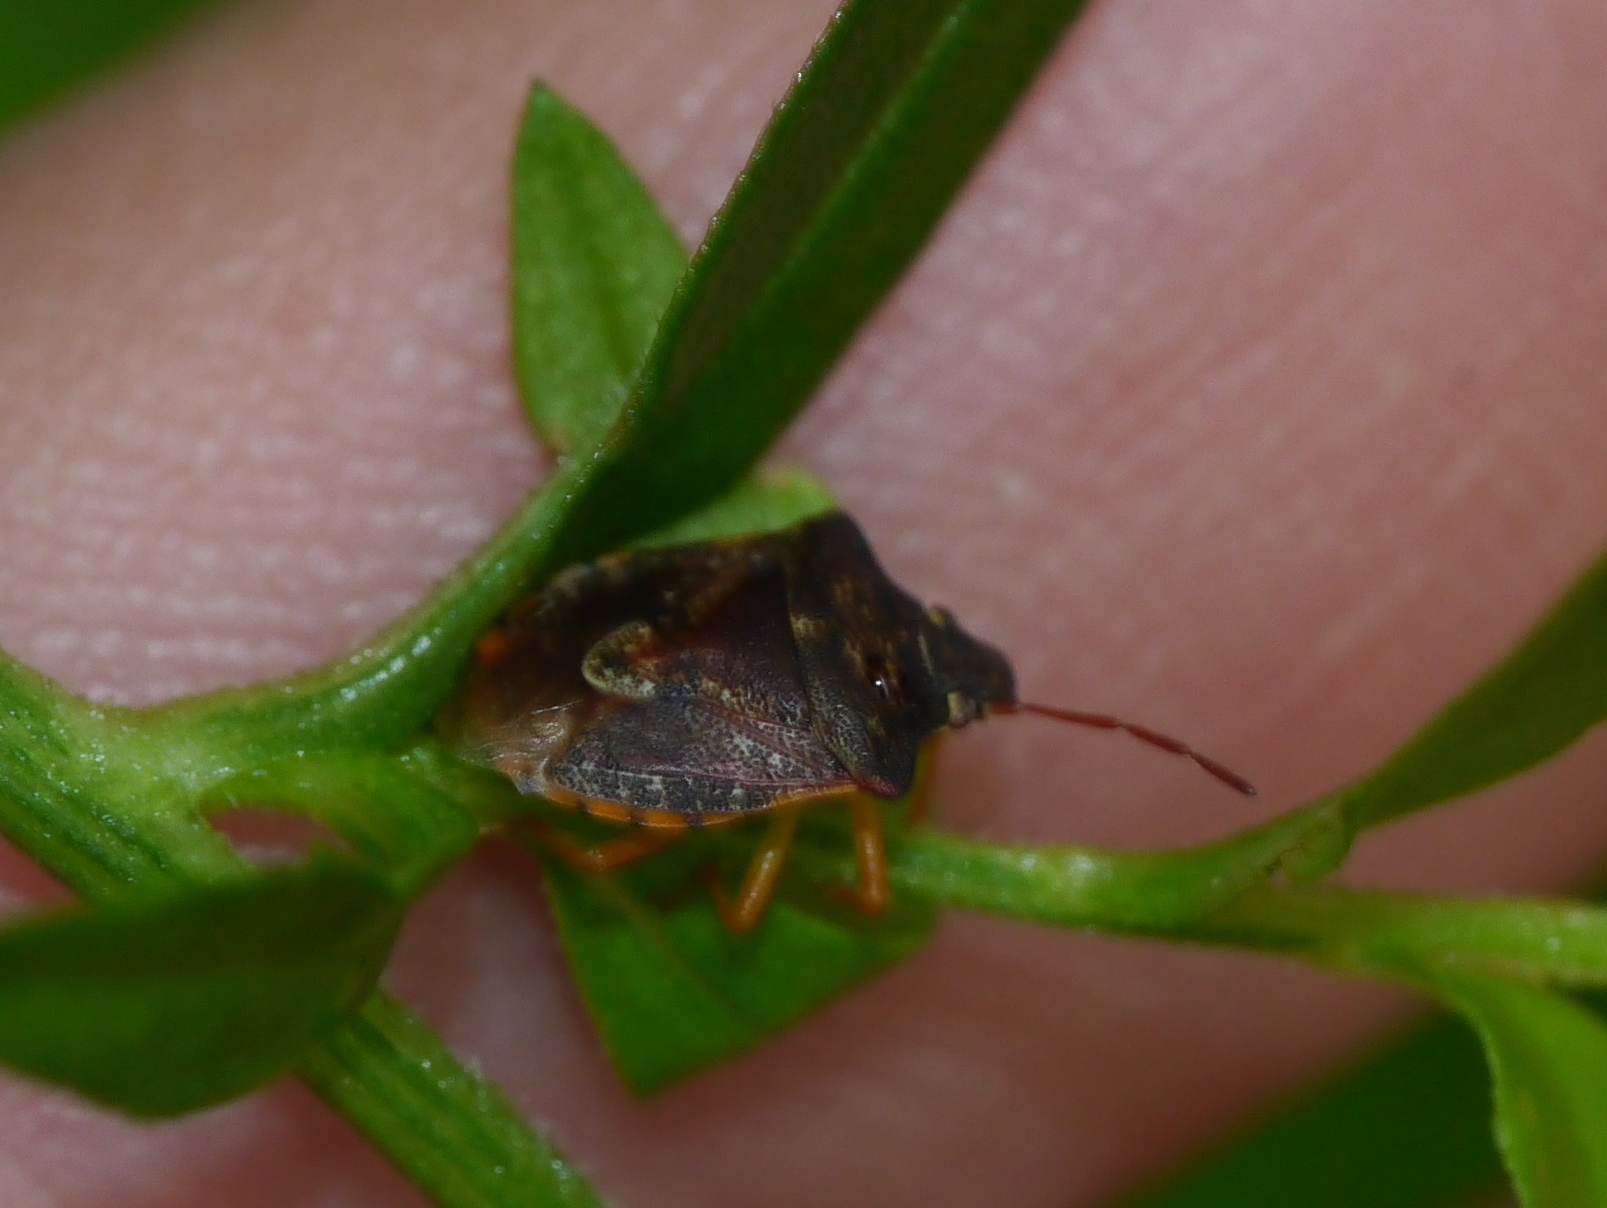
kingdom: Animalia
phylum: Arthropoda
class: Insecta
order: Hemiptera
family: Pentatomidae
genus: Dendrocoris
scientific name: Dendrocoris humeralis
